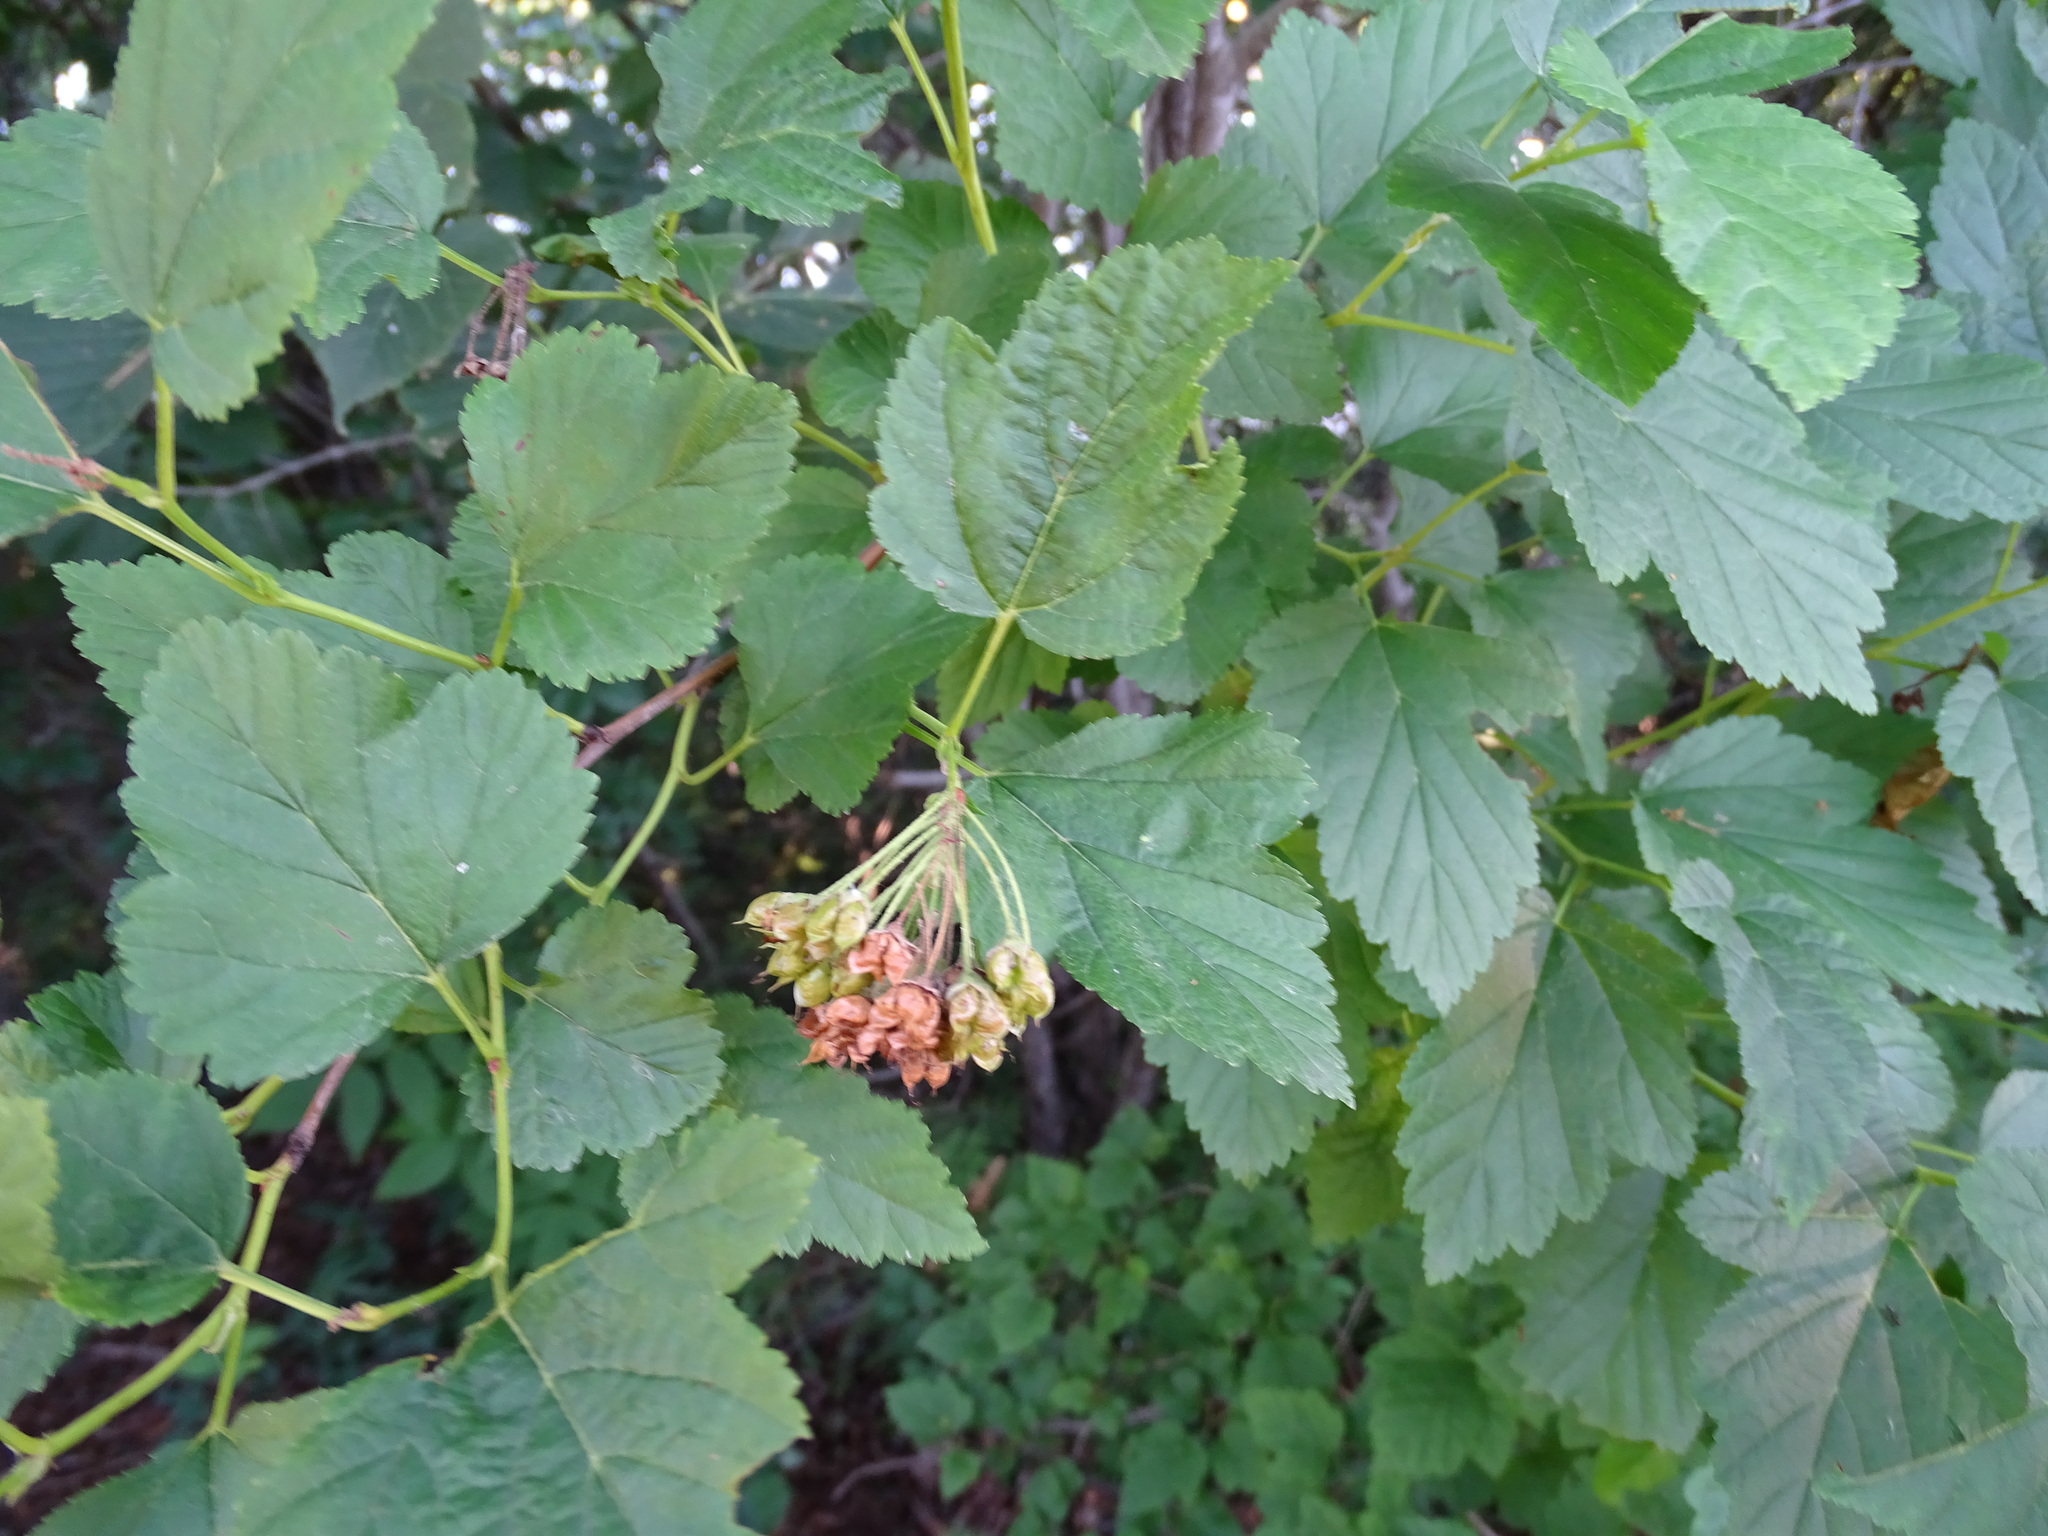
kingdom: Plantae
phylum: Tracheophyta
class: Magnoliopsida
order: Rosales
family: Rosaceae
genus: Physocarpus
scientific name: Physocarpus opulifolius
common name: Ninebark
